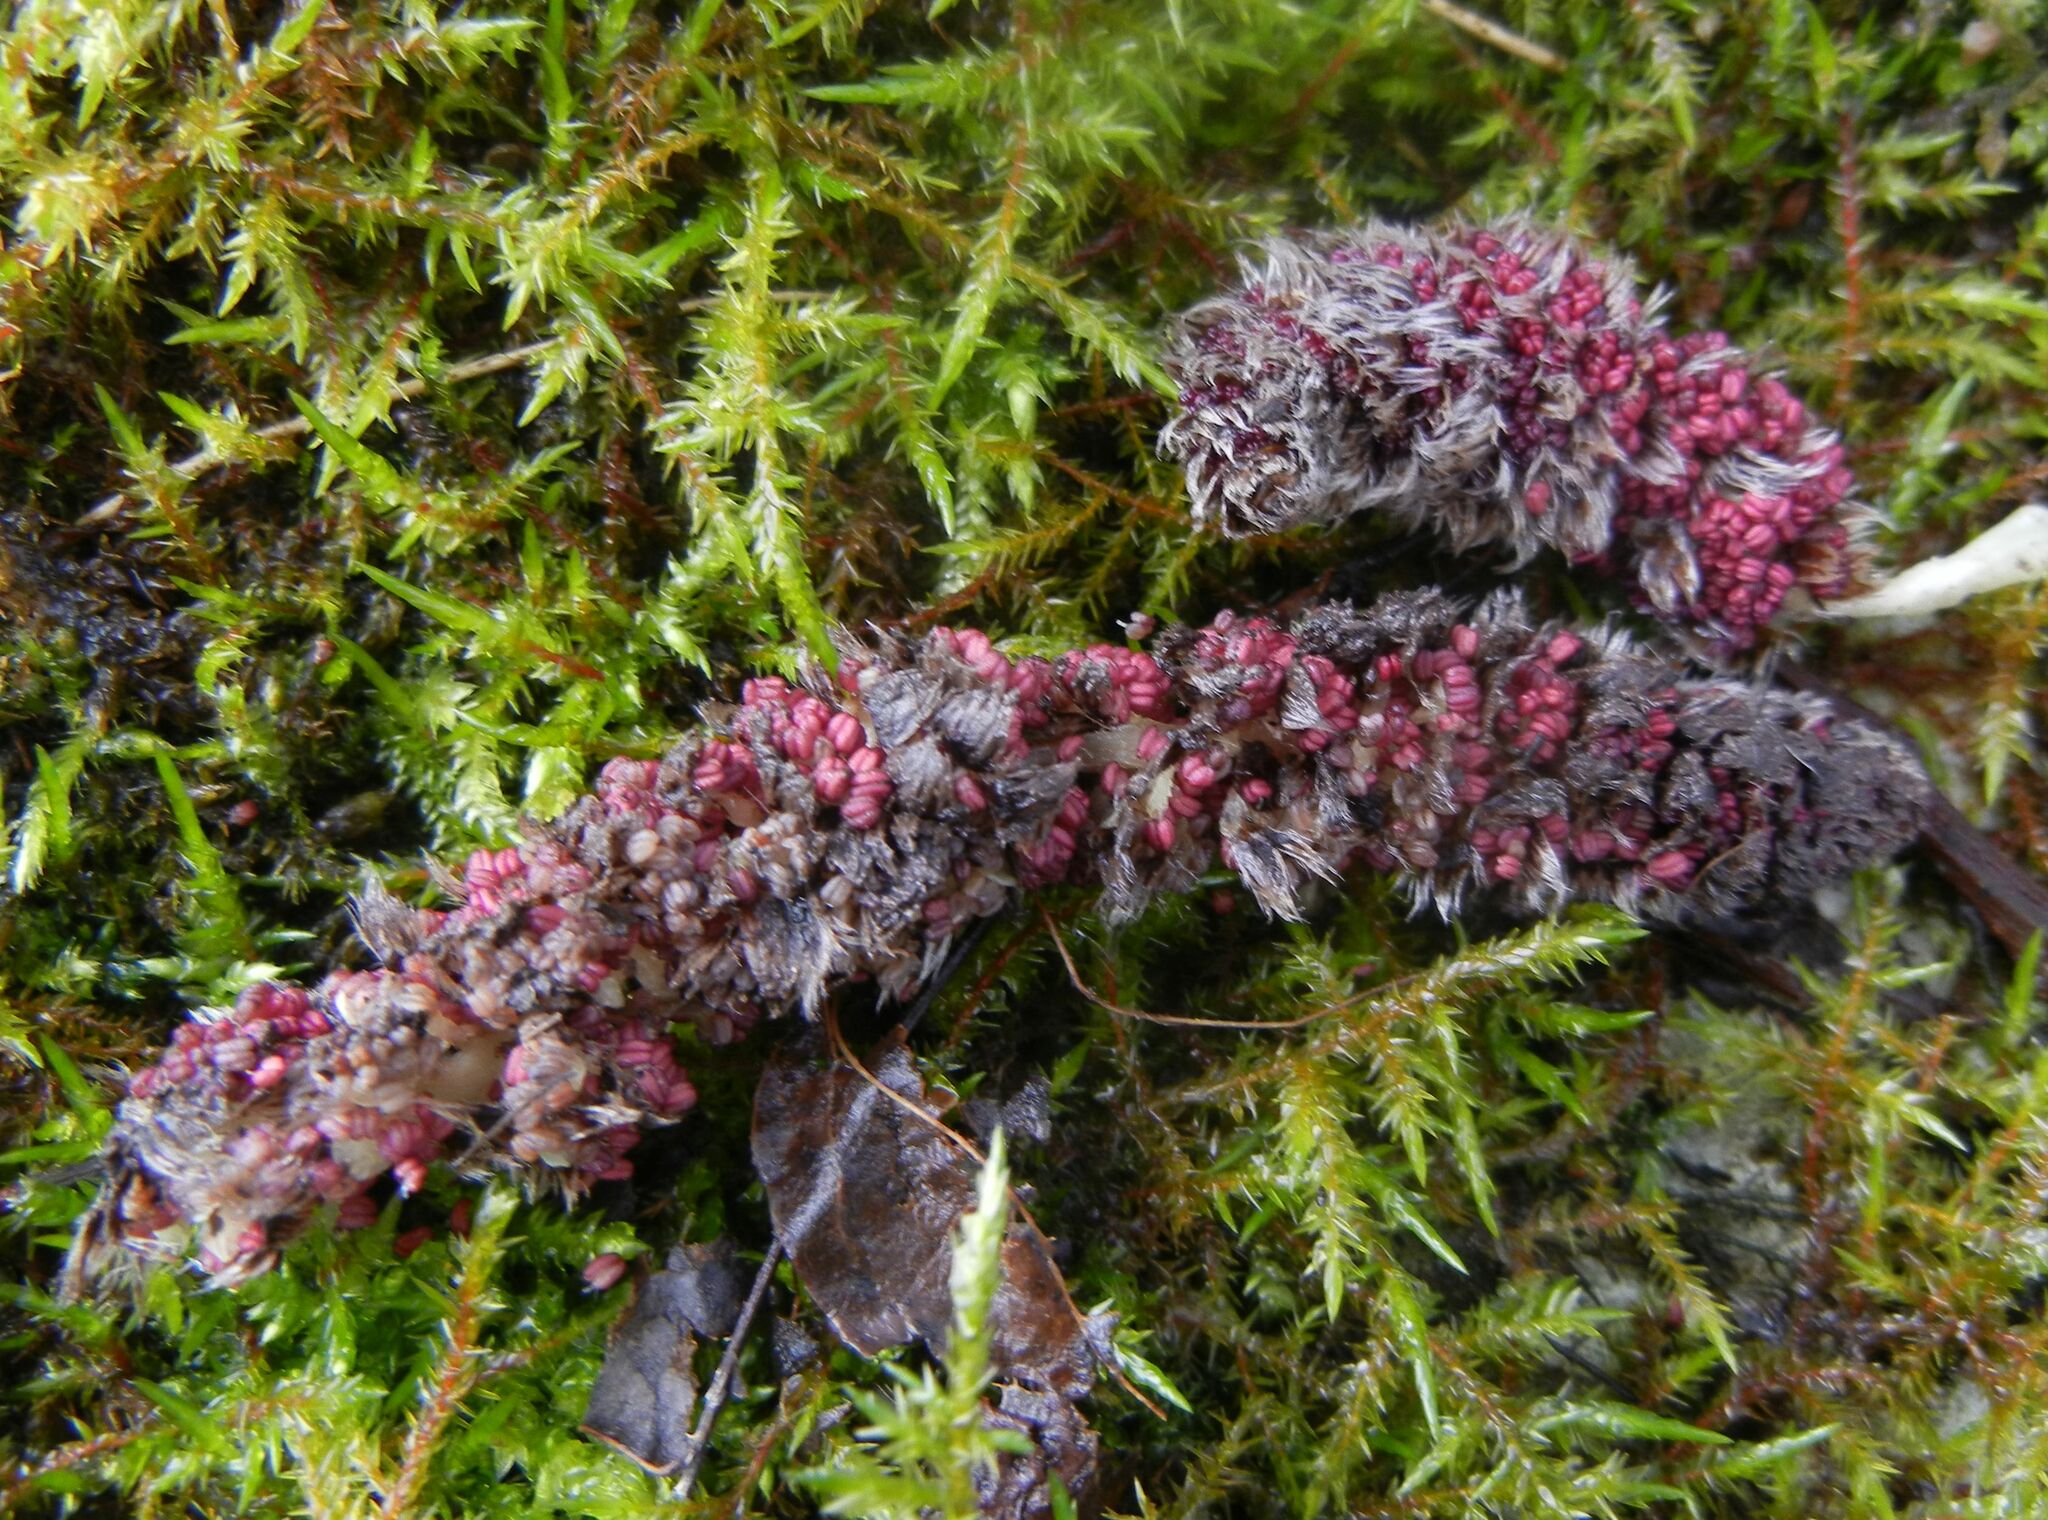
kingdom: Plantae
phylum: Tracheophyta
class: Magnoliopsida
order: Malpighiales
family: Salicaceae
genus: Populus
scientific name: Populus tremula
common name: European aspen
